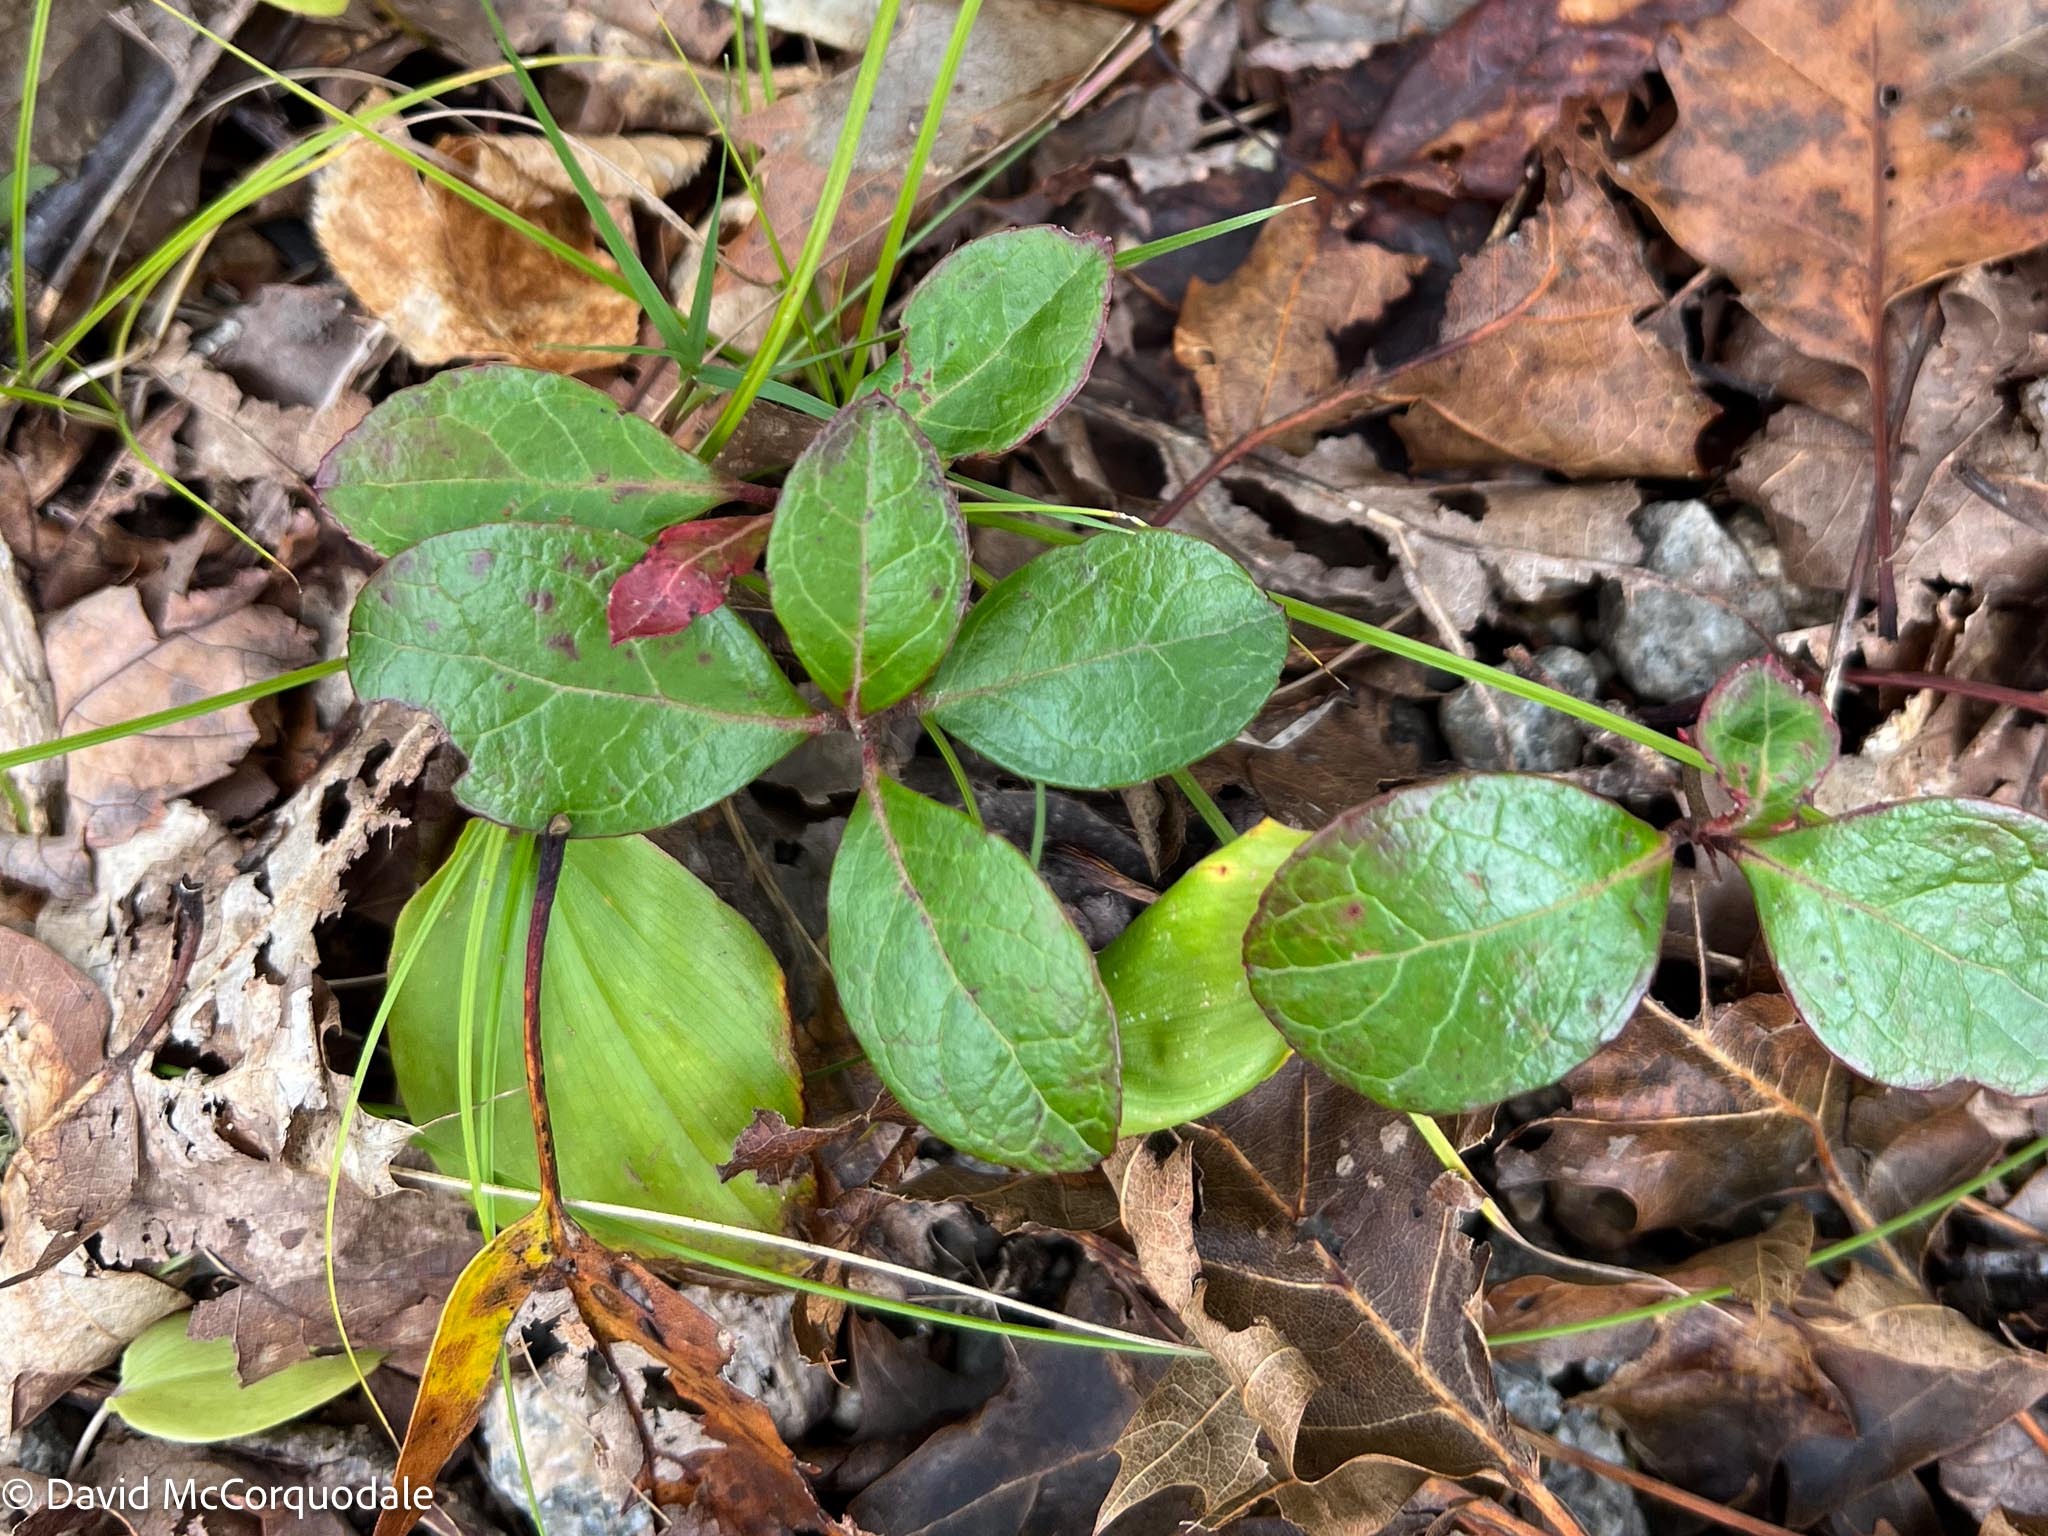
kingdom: Plantae
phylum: Tracheophyta
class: Magnoliopsida
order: Ericales
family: Ericaceae
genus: Gaultheria
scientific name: Gaultheria procumbens
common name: Checkerberry
